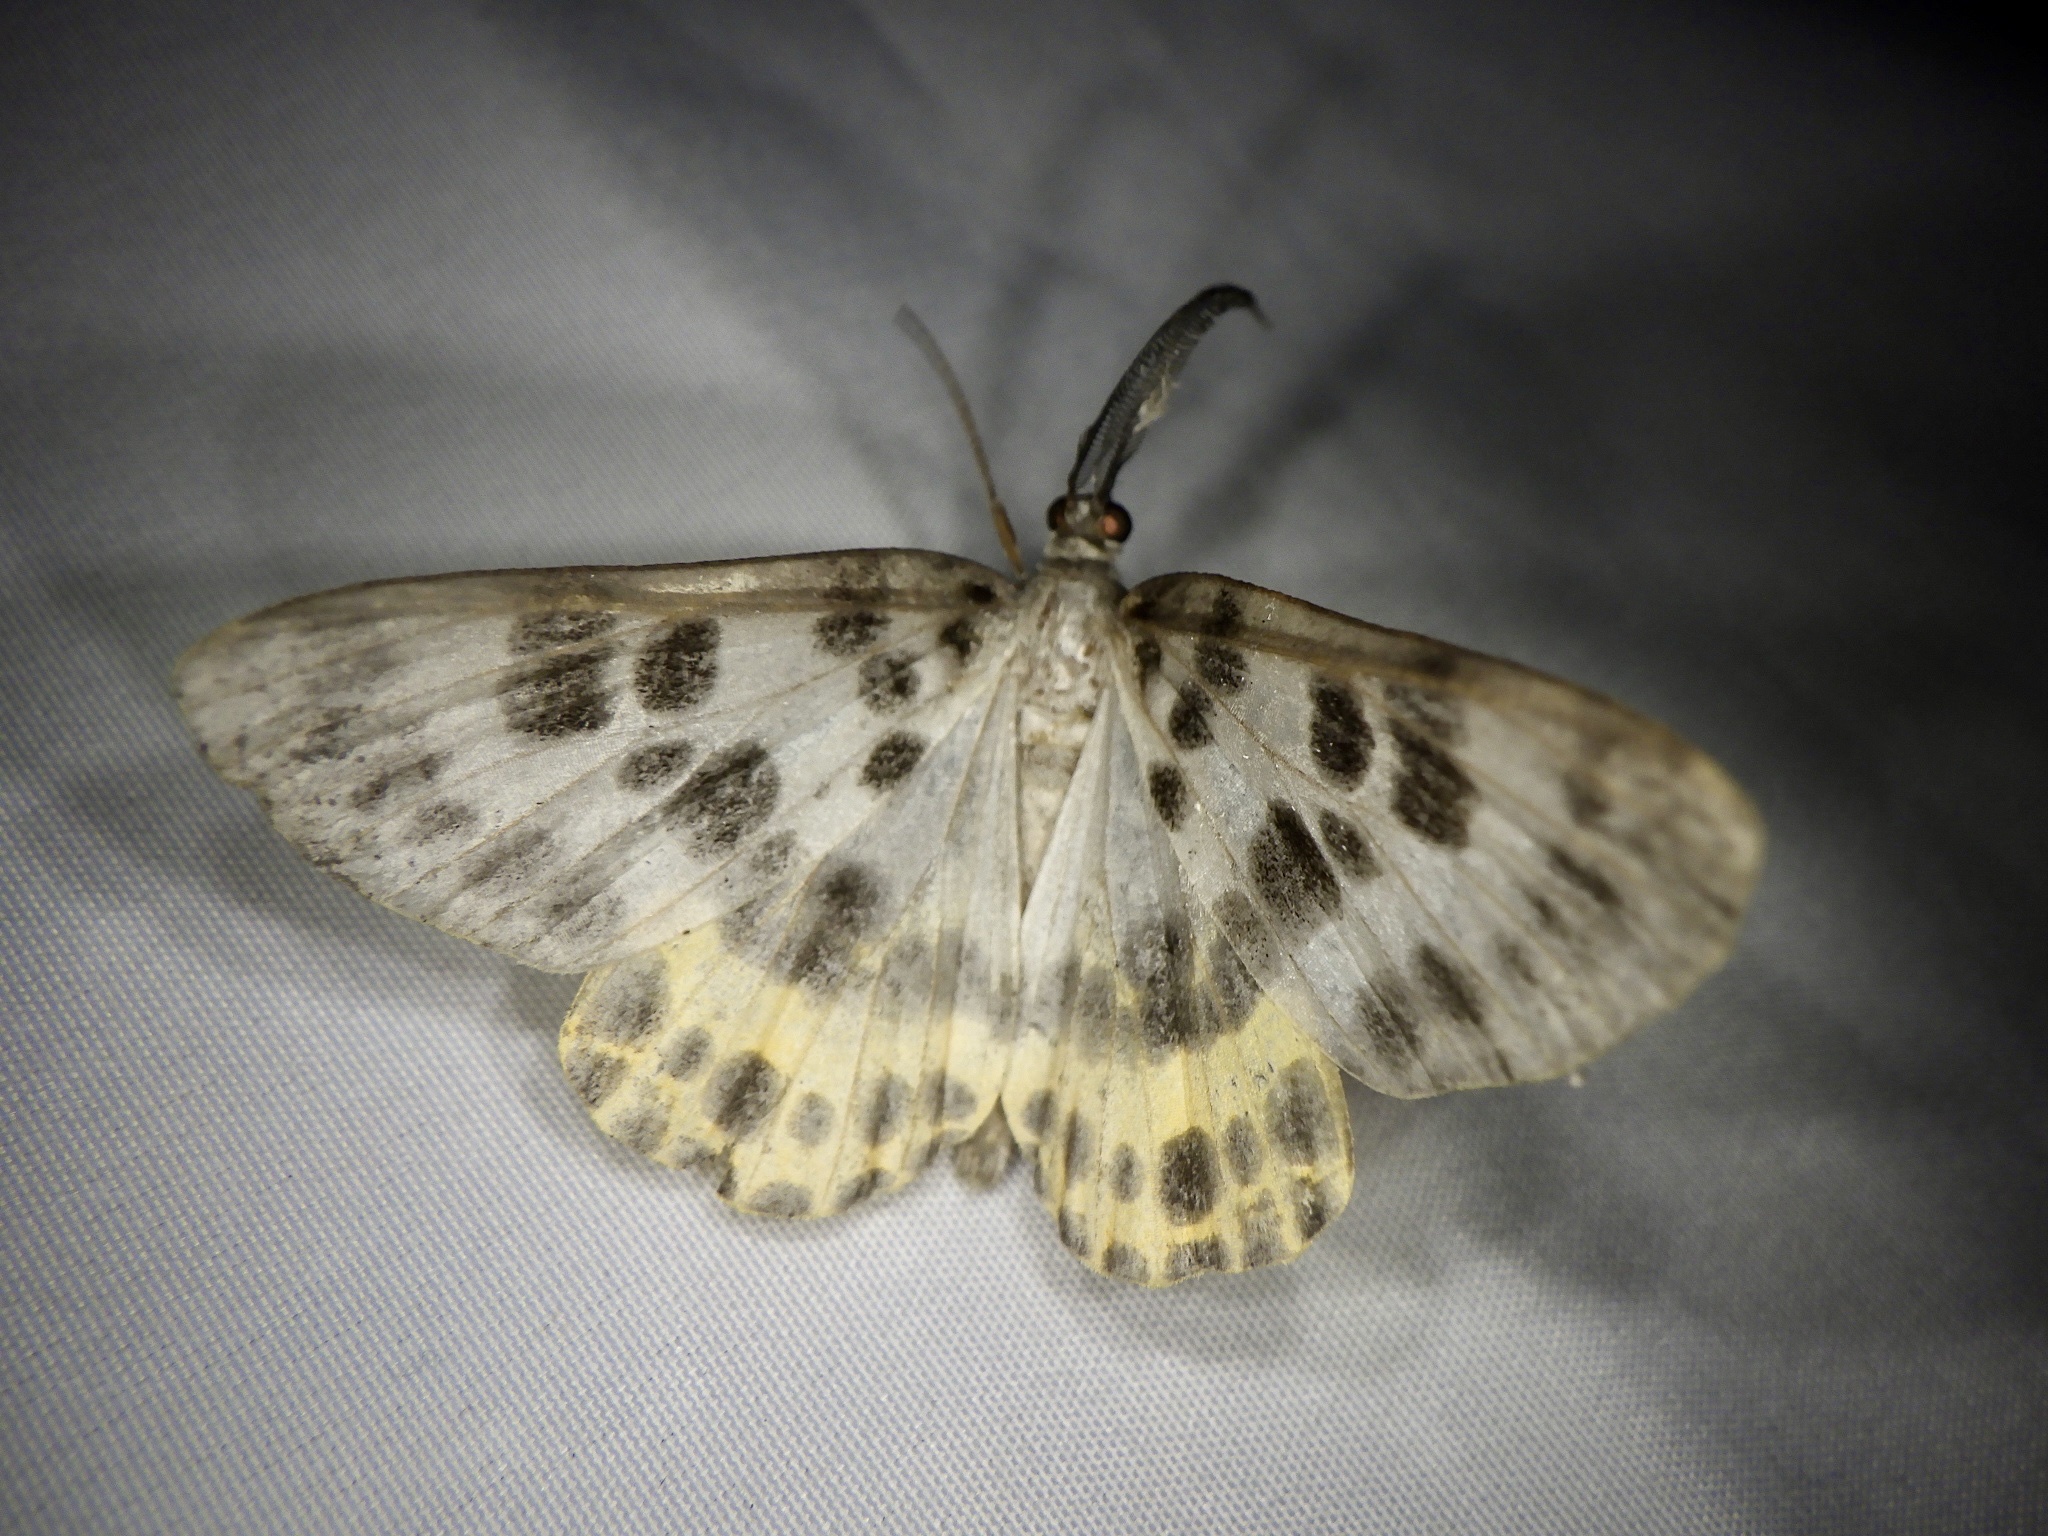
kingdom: Animalia
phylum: Arthropoda
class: Insecta
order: Lepidoptera
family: Geometridae
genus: Arichanna
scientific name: Arichanna
